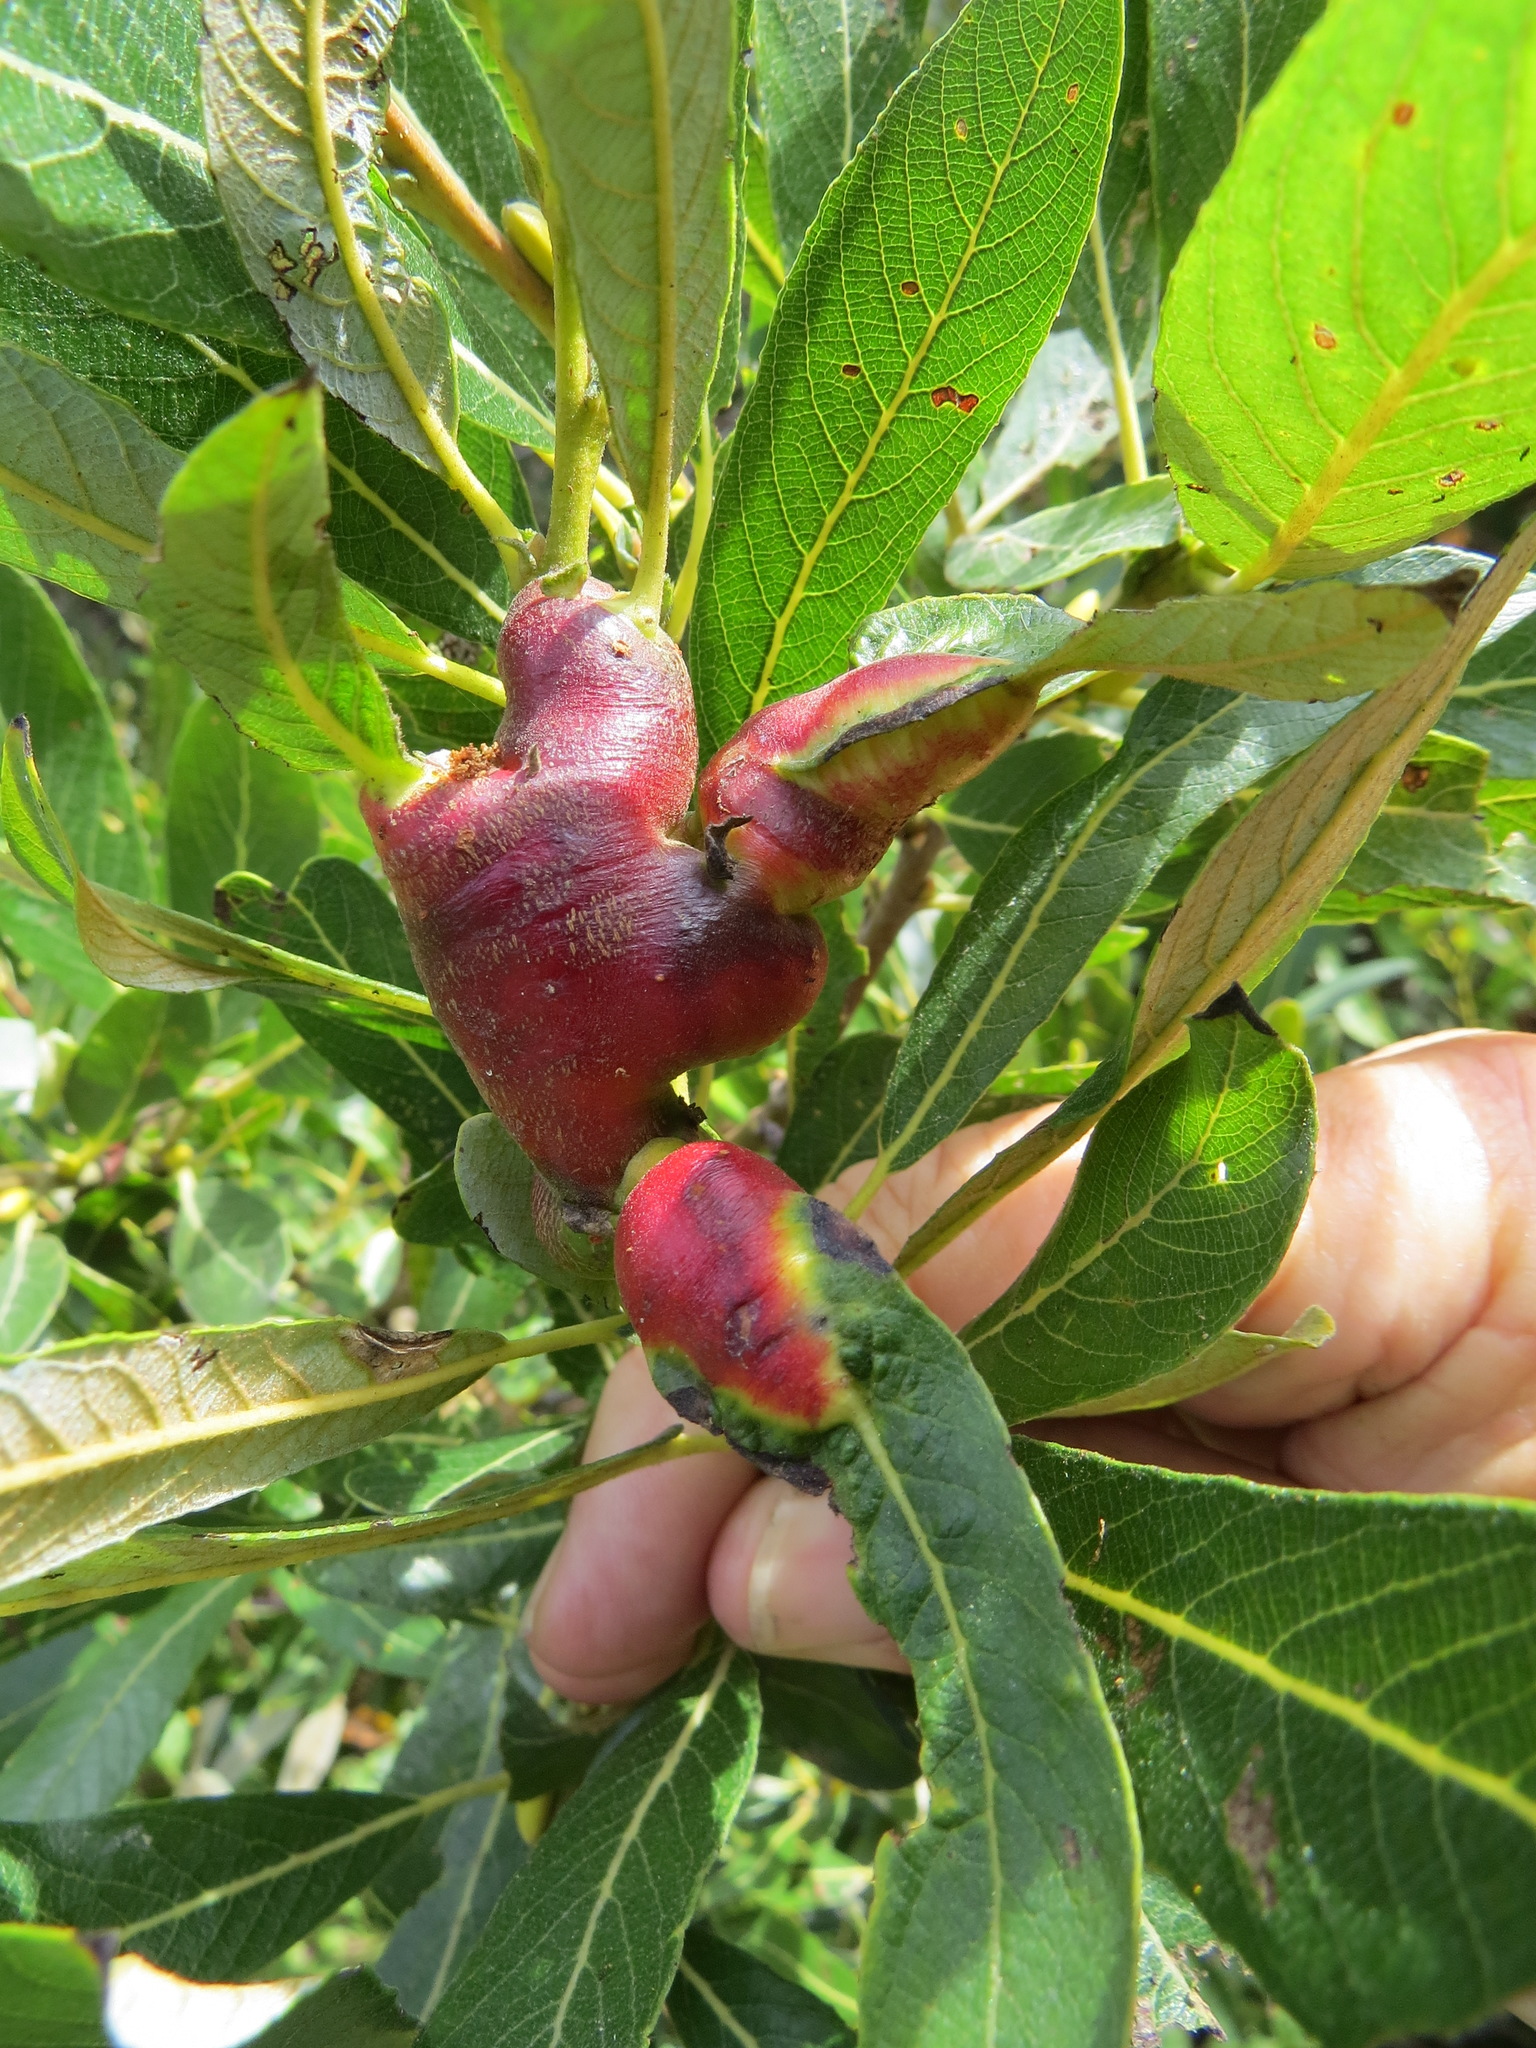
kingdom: Animalia
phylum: Arthropoda
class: Insecta
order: Diptera
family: Cecidomyiidae
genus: Rabdophaga
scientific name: Rabdophaga salicisbatatas
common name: Potato gall midge
